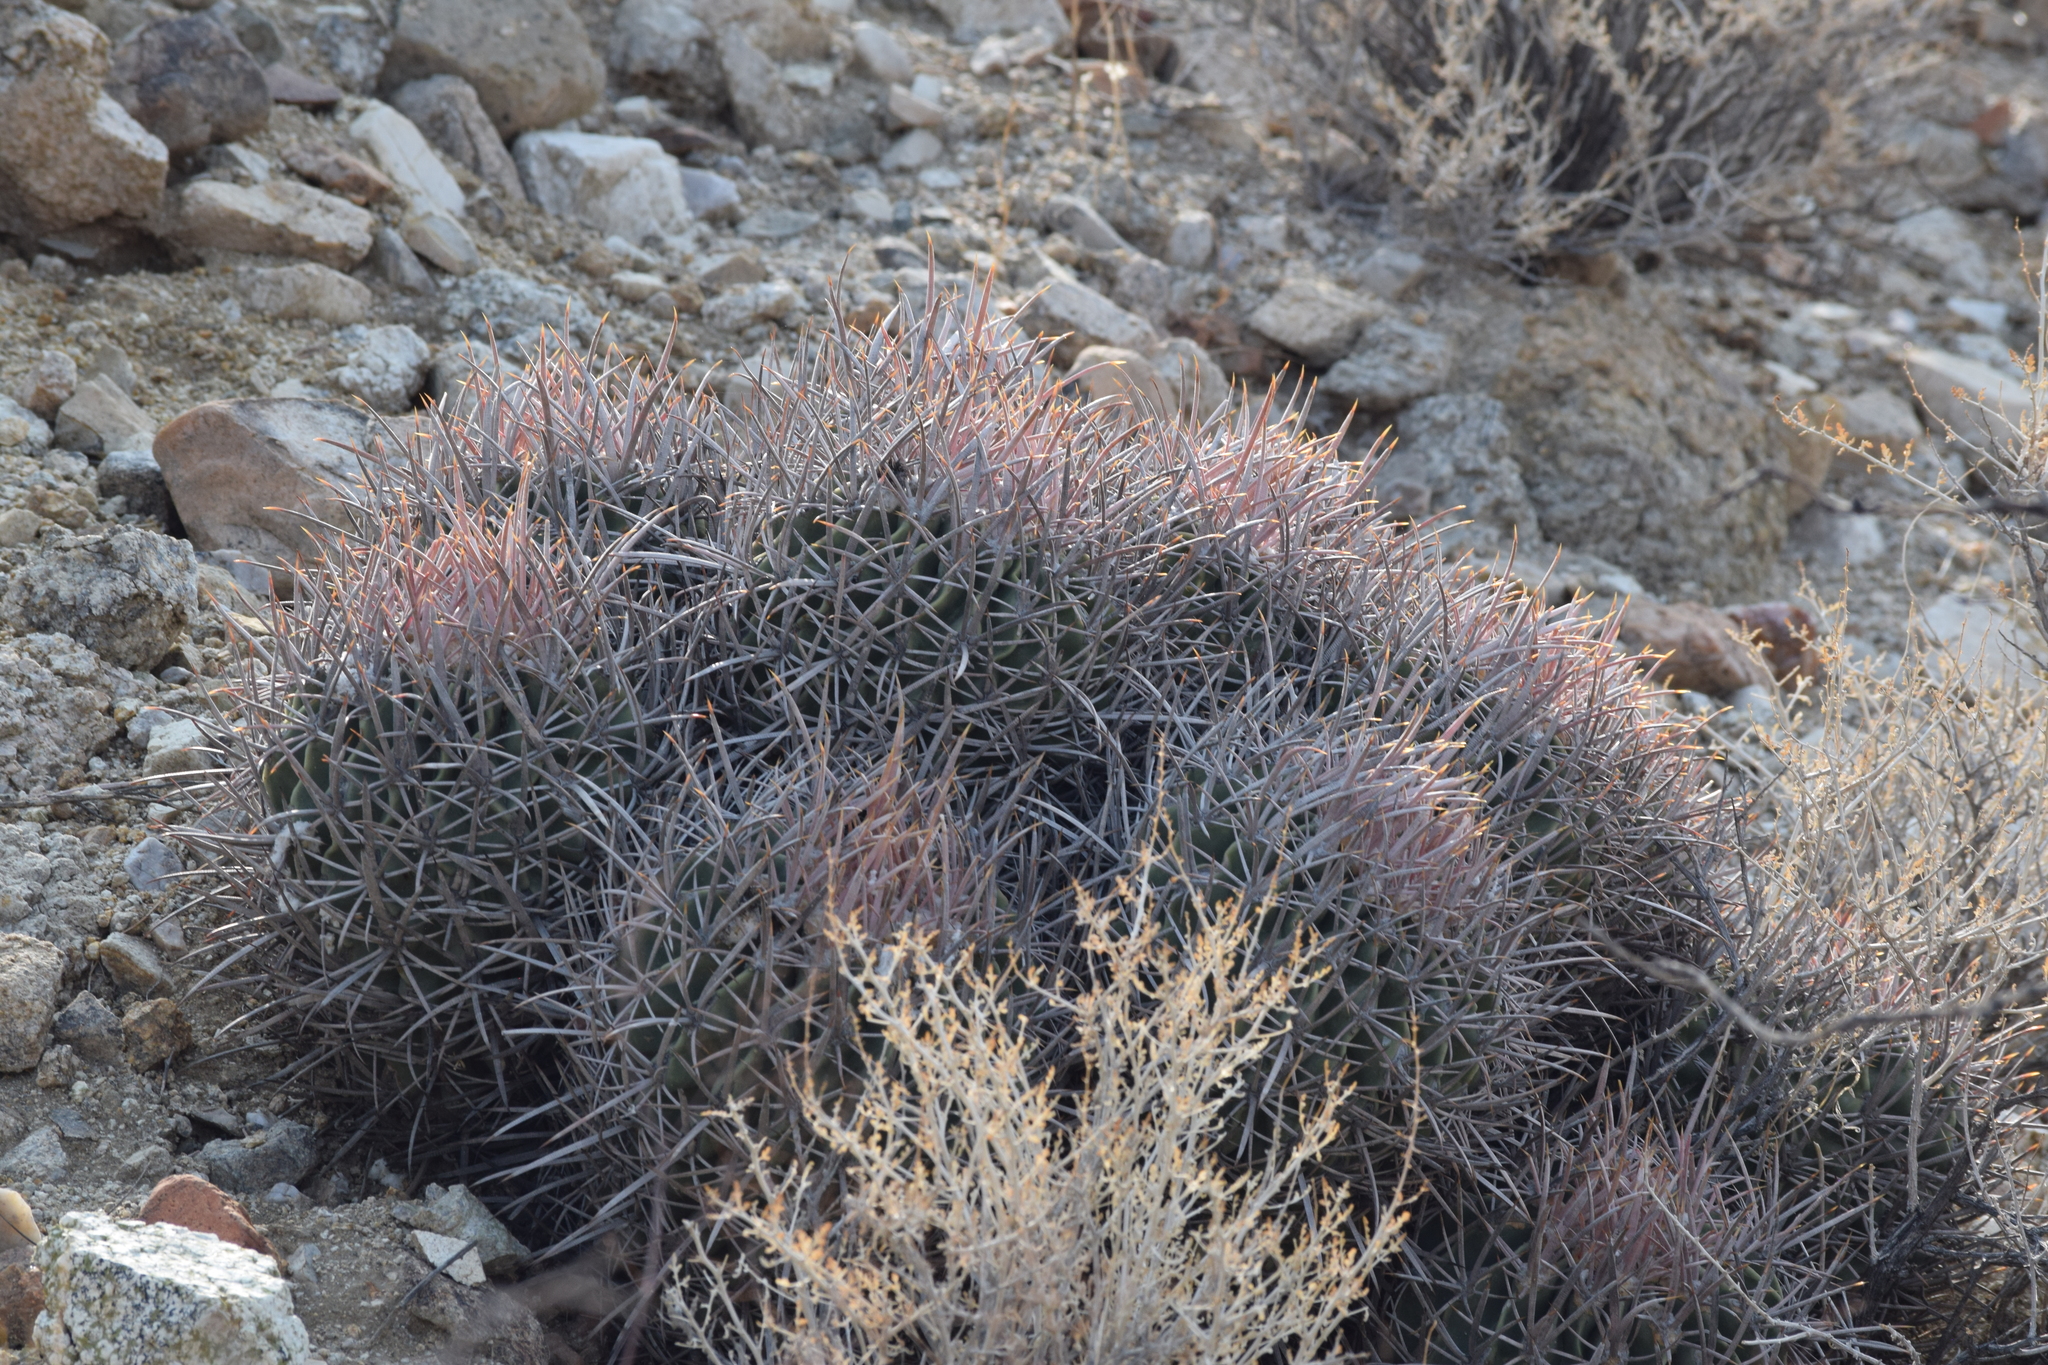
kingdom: Plantae
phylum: Tracheophyta
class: Magnoliopsida
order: Caryophyllales
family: Cactaceae
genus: Echinocactus
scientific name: Echinocactus polycephalus
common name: Cottontop cactus
